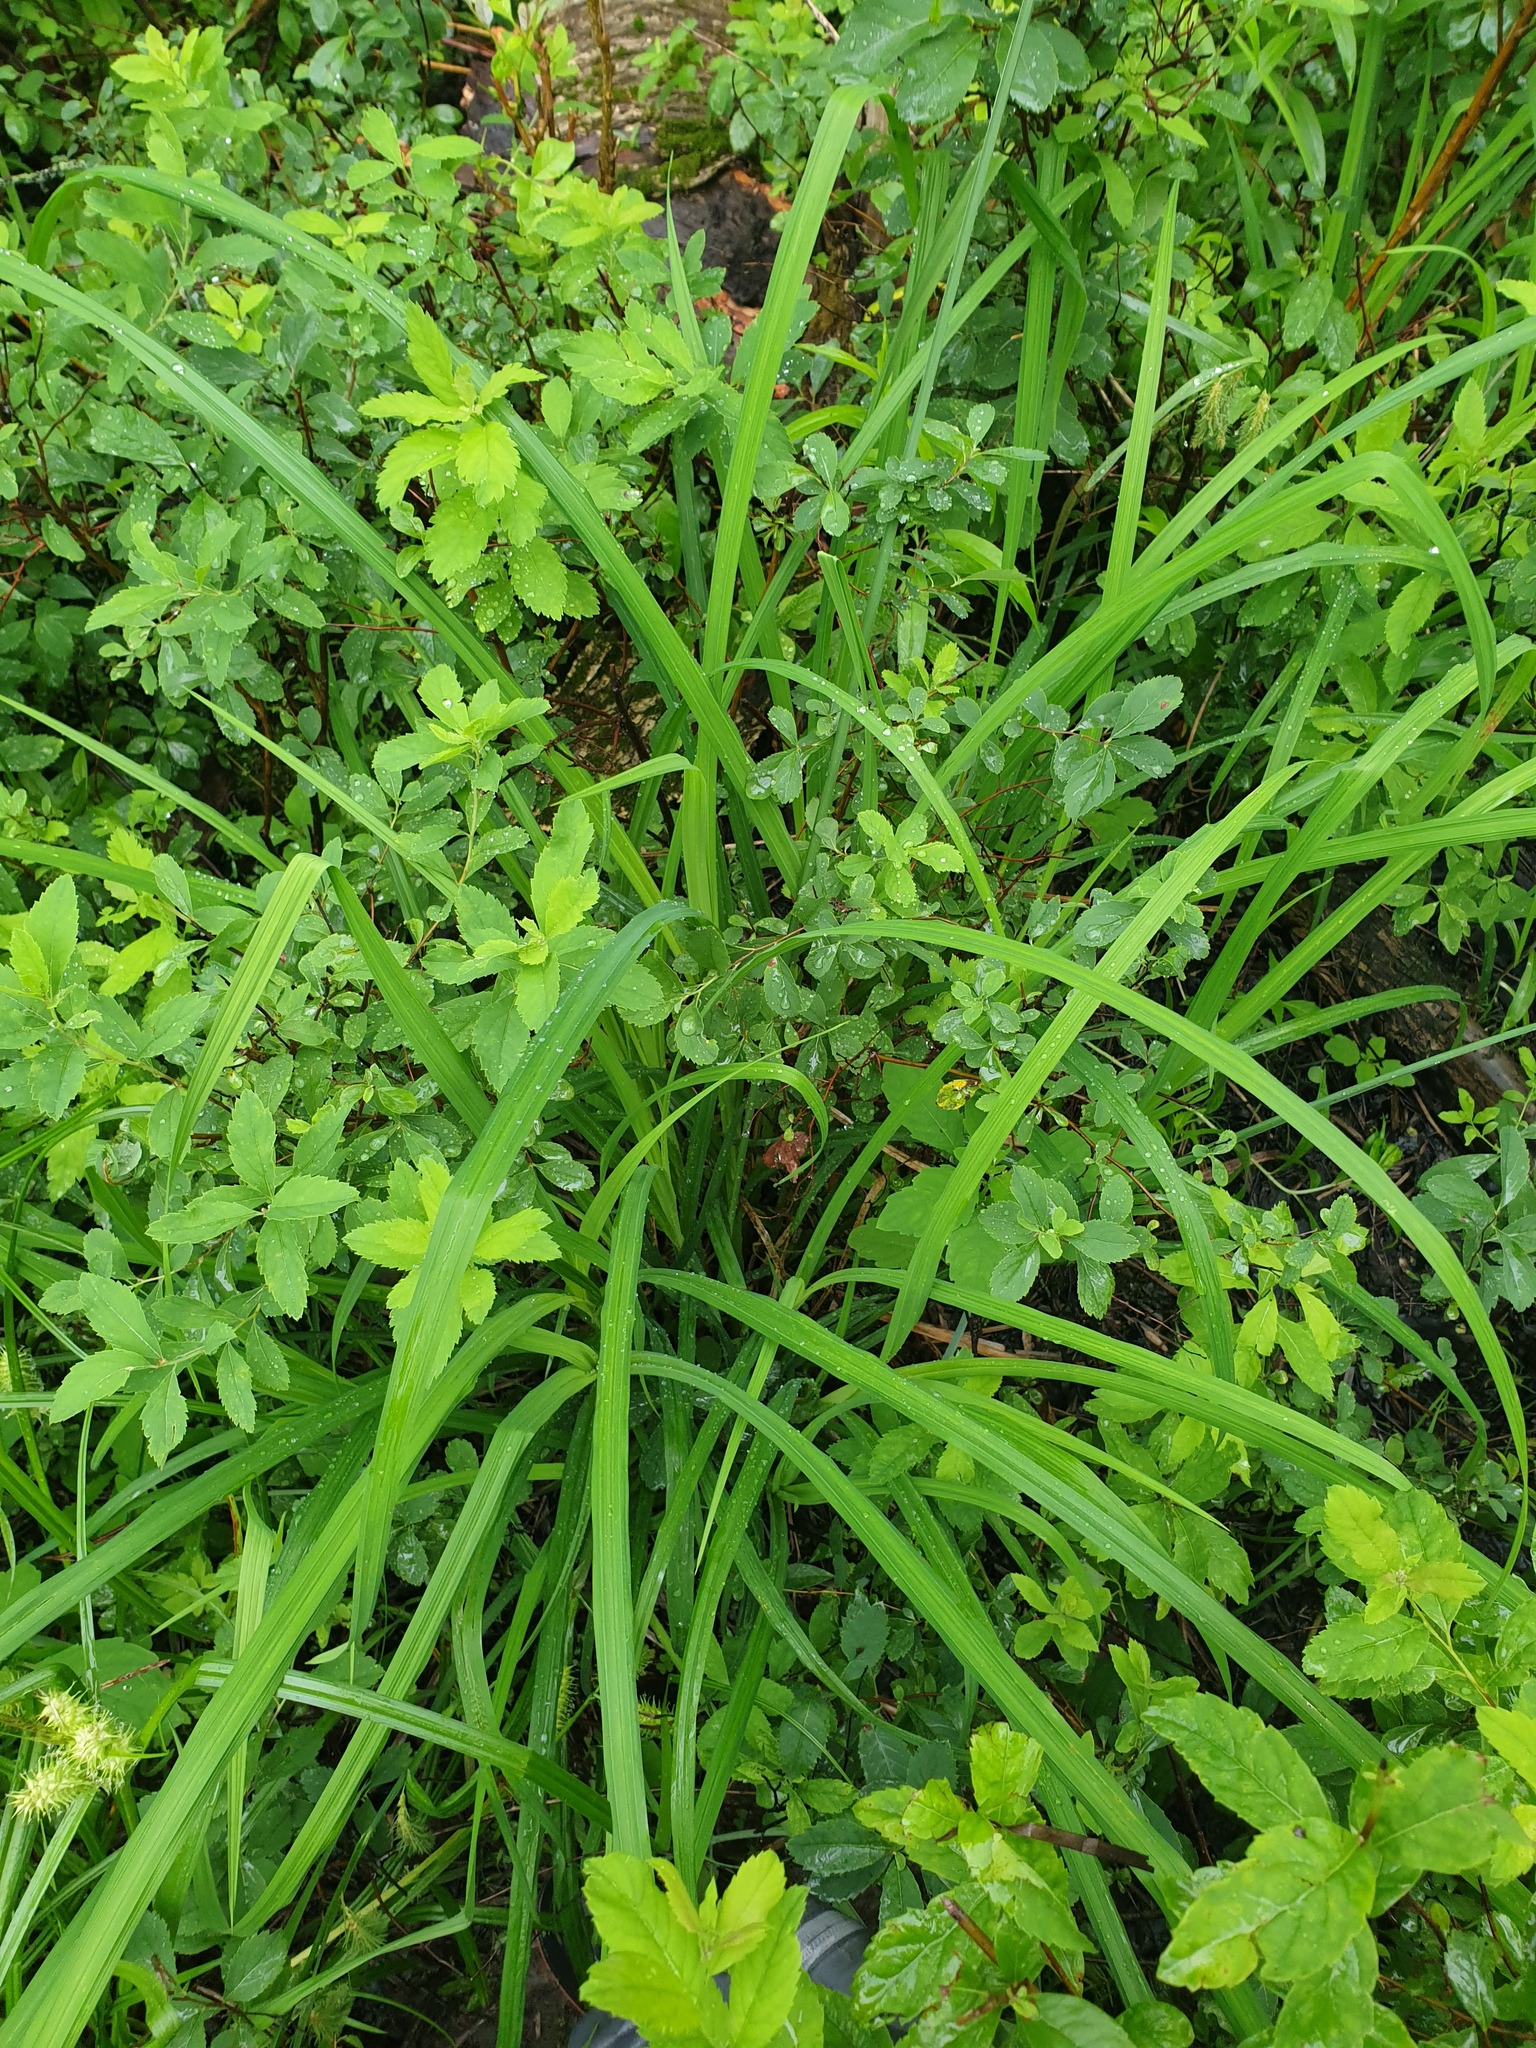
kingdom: Plantae
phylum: Tracheophyta
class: Liliopsida
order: Poales
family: Cyperaceae
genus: Carex
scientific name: Carex crinita
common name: Fringed sedge
